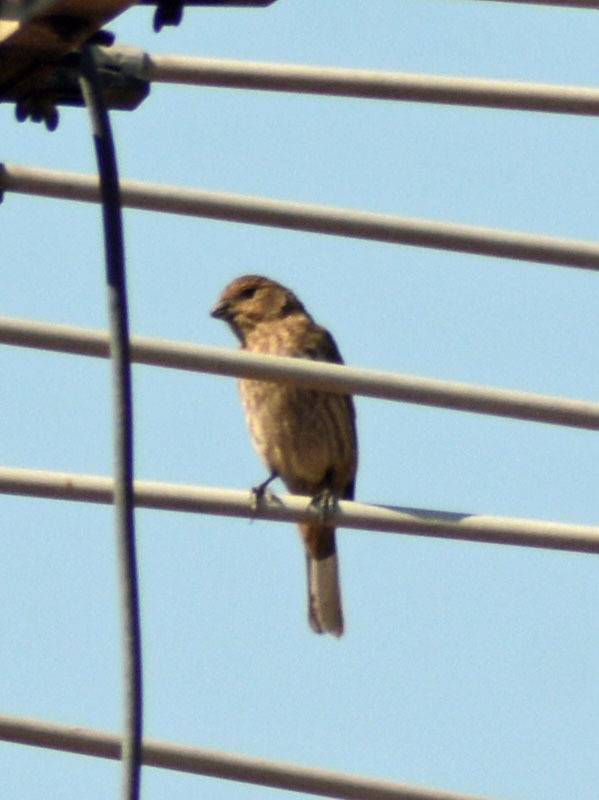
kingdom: Animalia
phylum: Chordata
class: Aves
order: Passeriformes
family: Fringillidae
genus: Haemorhous
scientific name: Haemorhous mexicanus
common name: House finch
